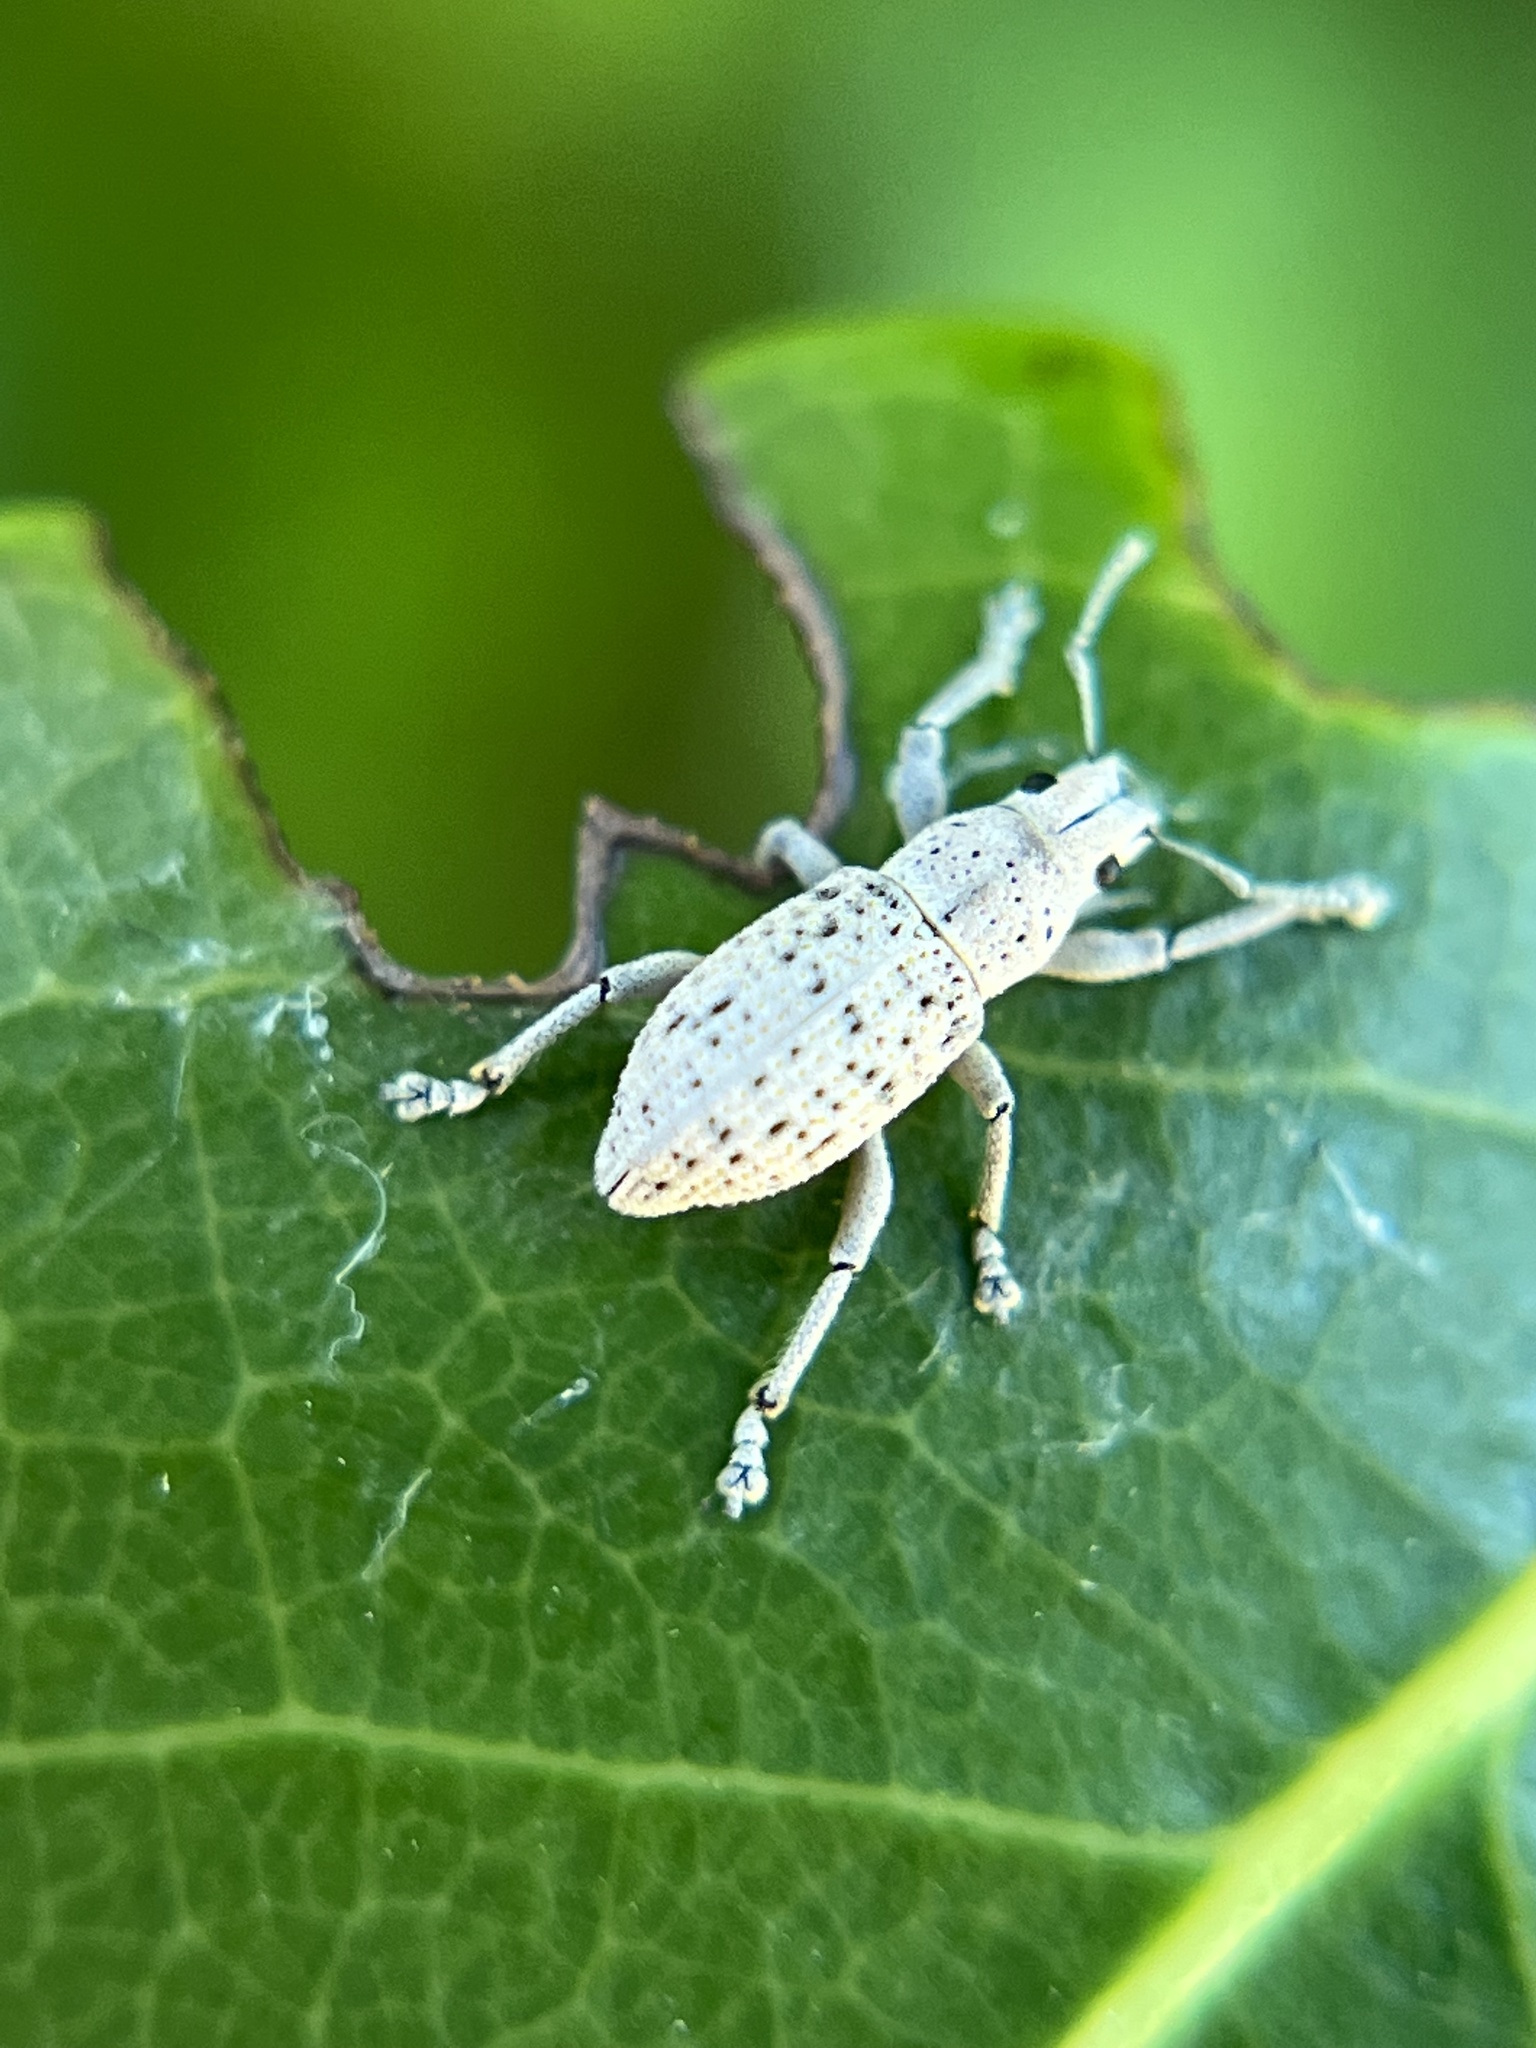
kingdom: Animalia
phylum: Arthropoda
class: Insecta
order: Coleoptera
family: Curculionidae
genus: Artipus
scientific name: Artipus floridanus
